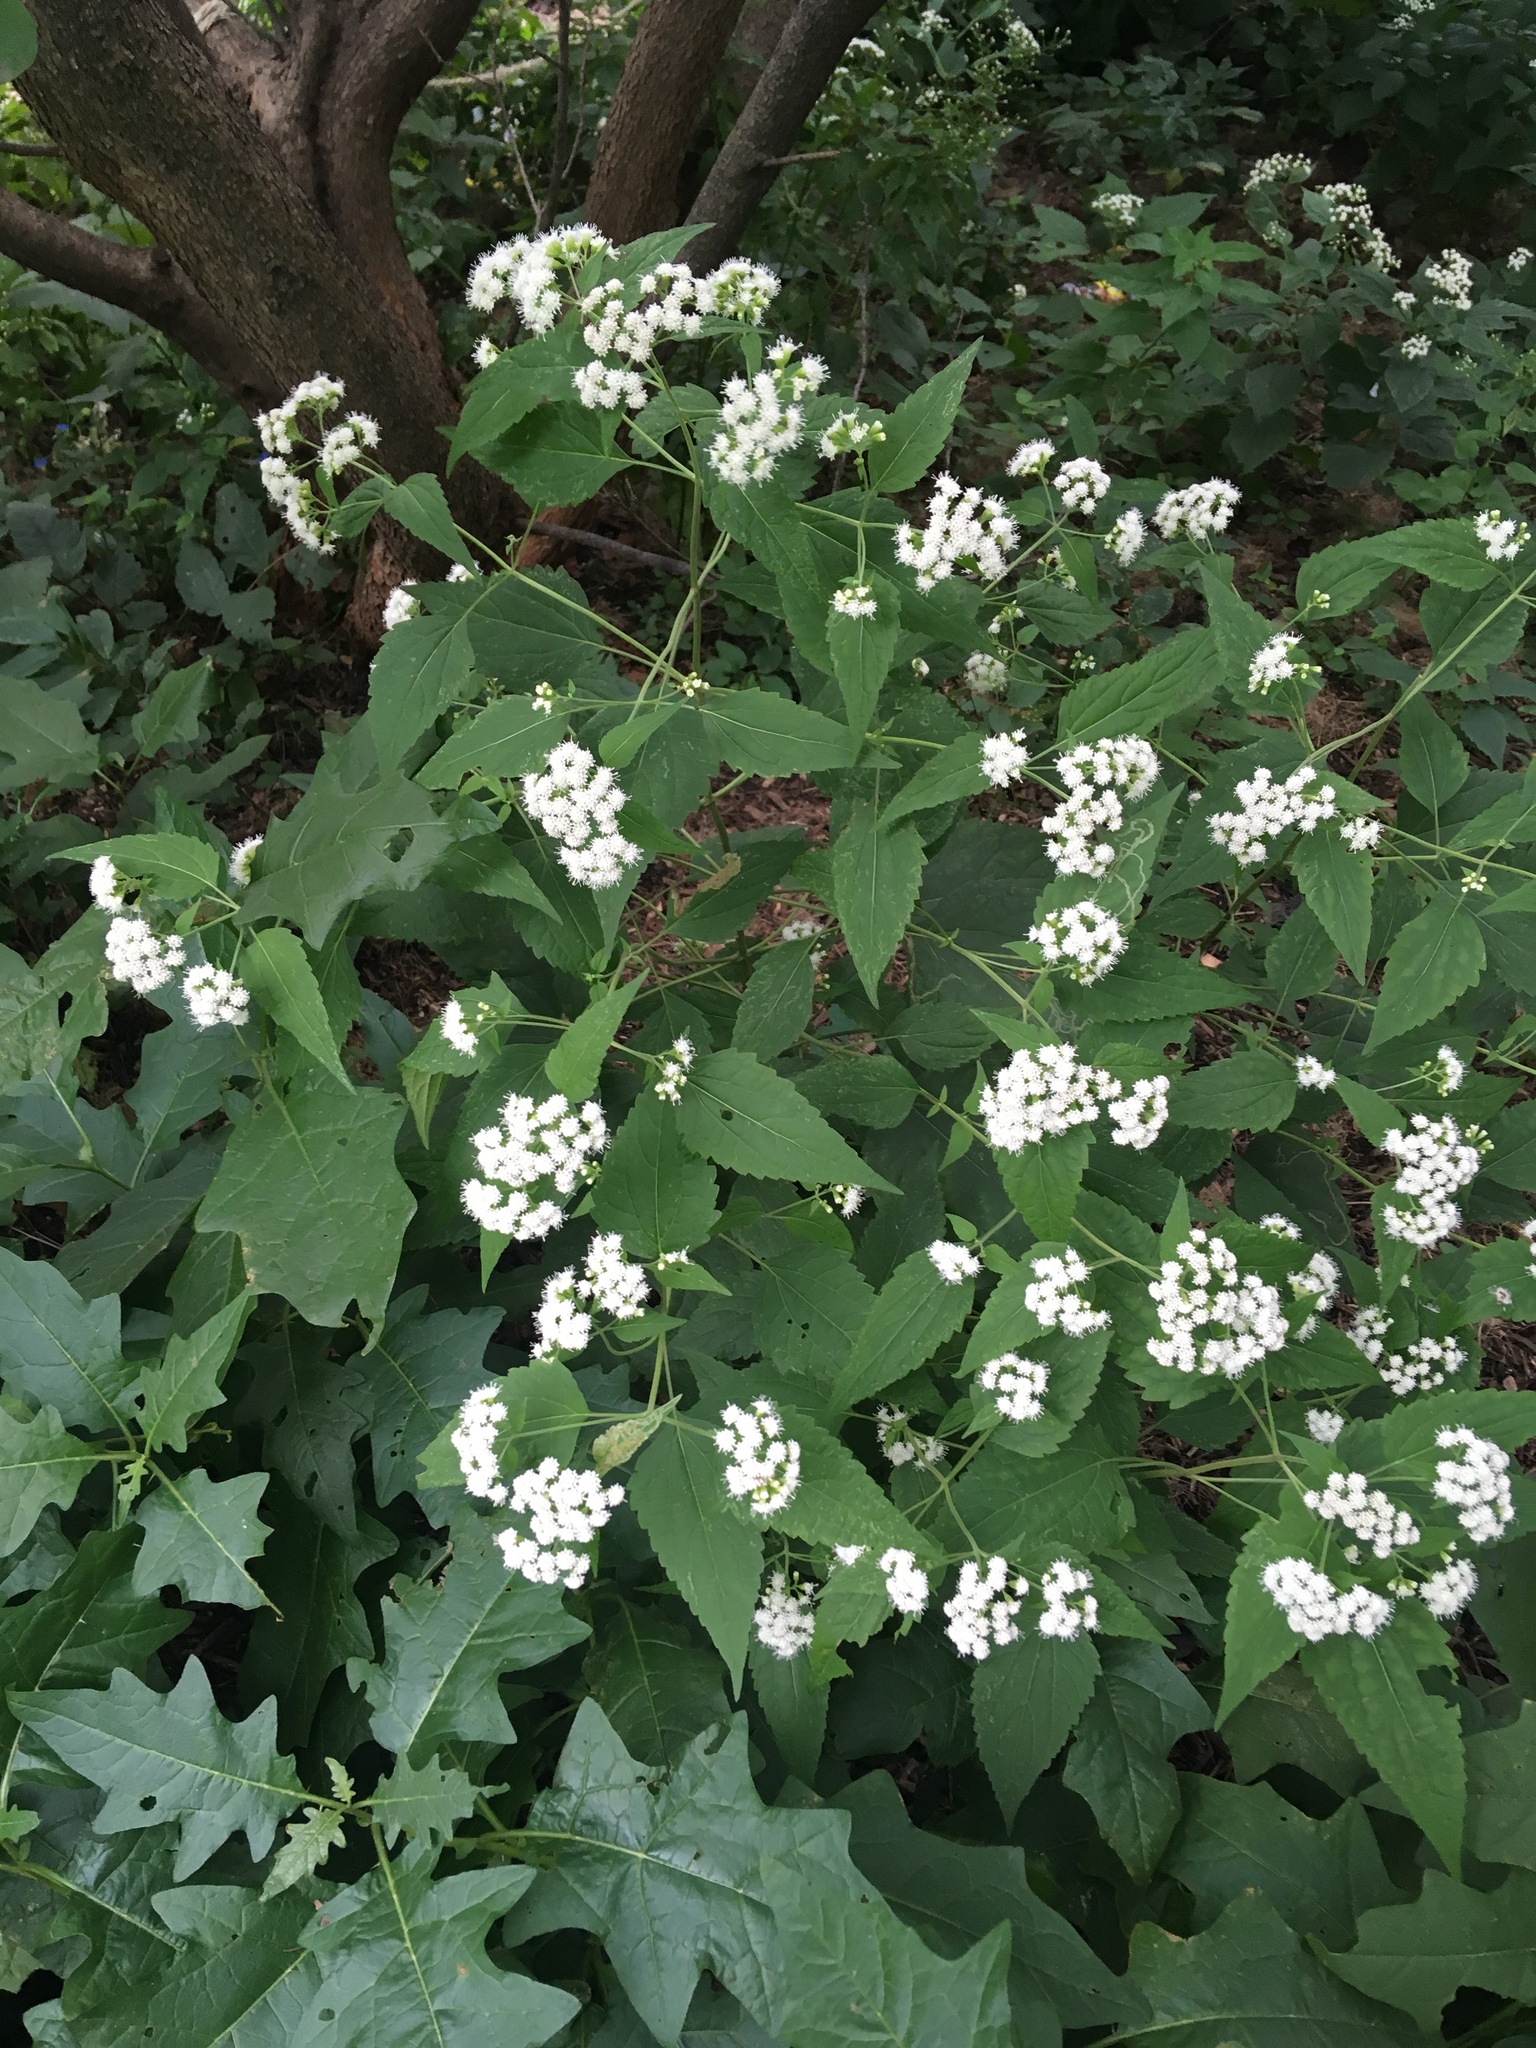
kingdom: Plantae
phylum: Tracheophyta
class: Magnoliopsida
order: Asterales
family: Asteraceae
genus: Ageratina
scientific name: Ageratina altissima
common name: White snakeroot
